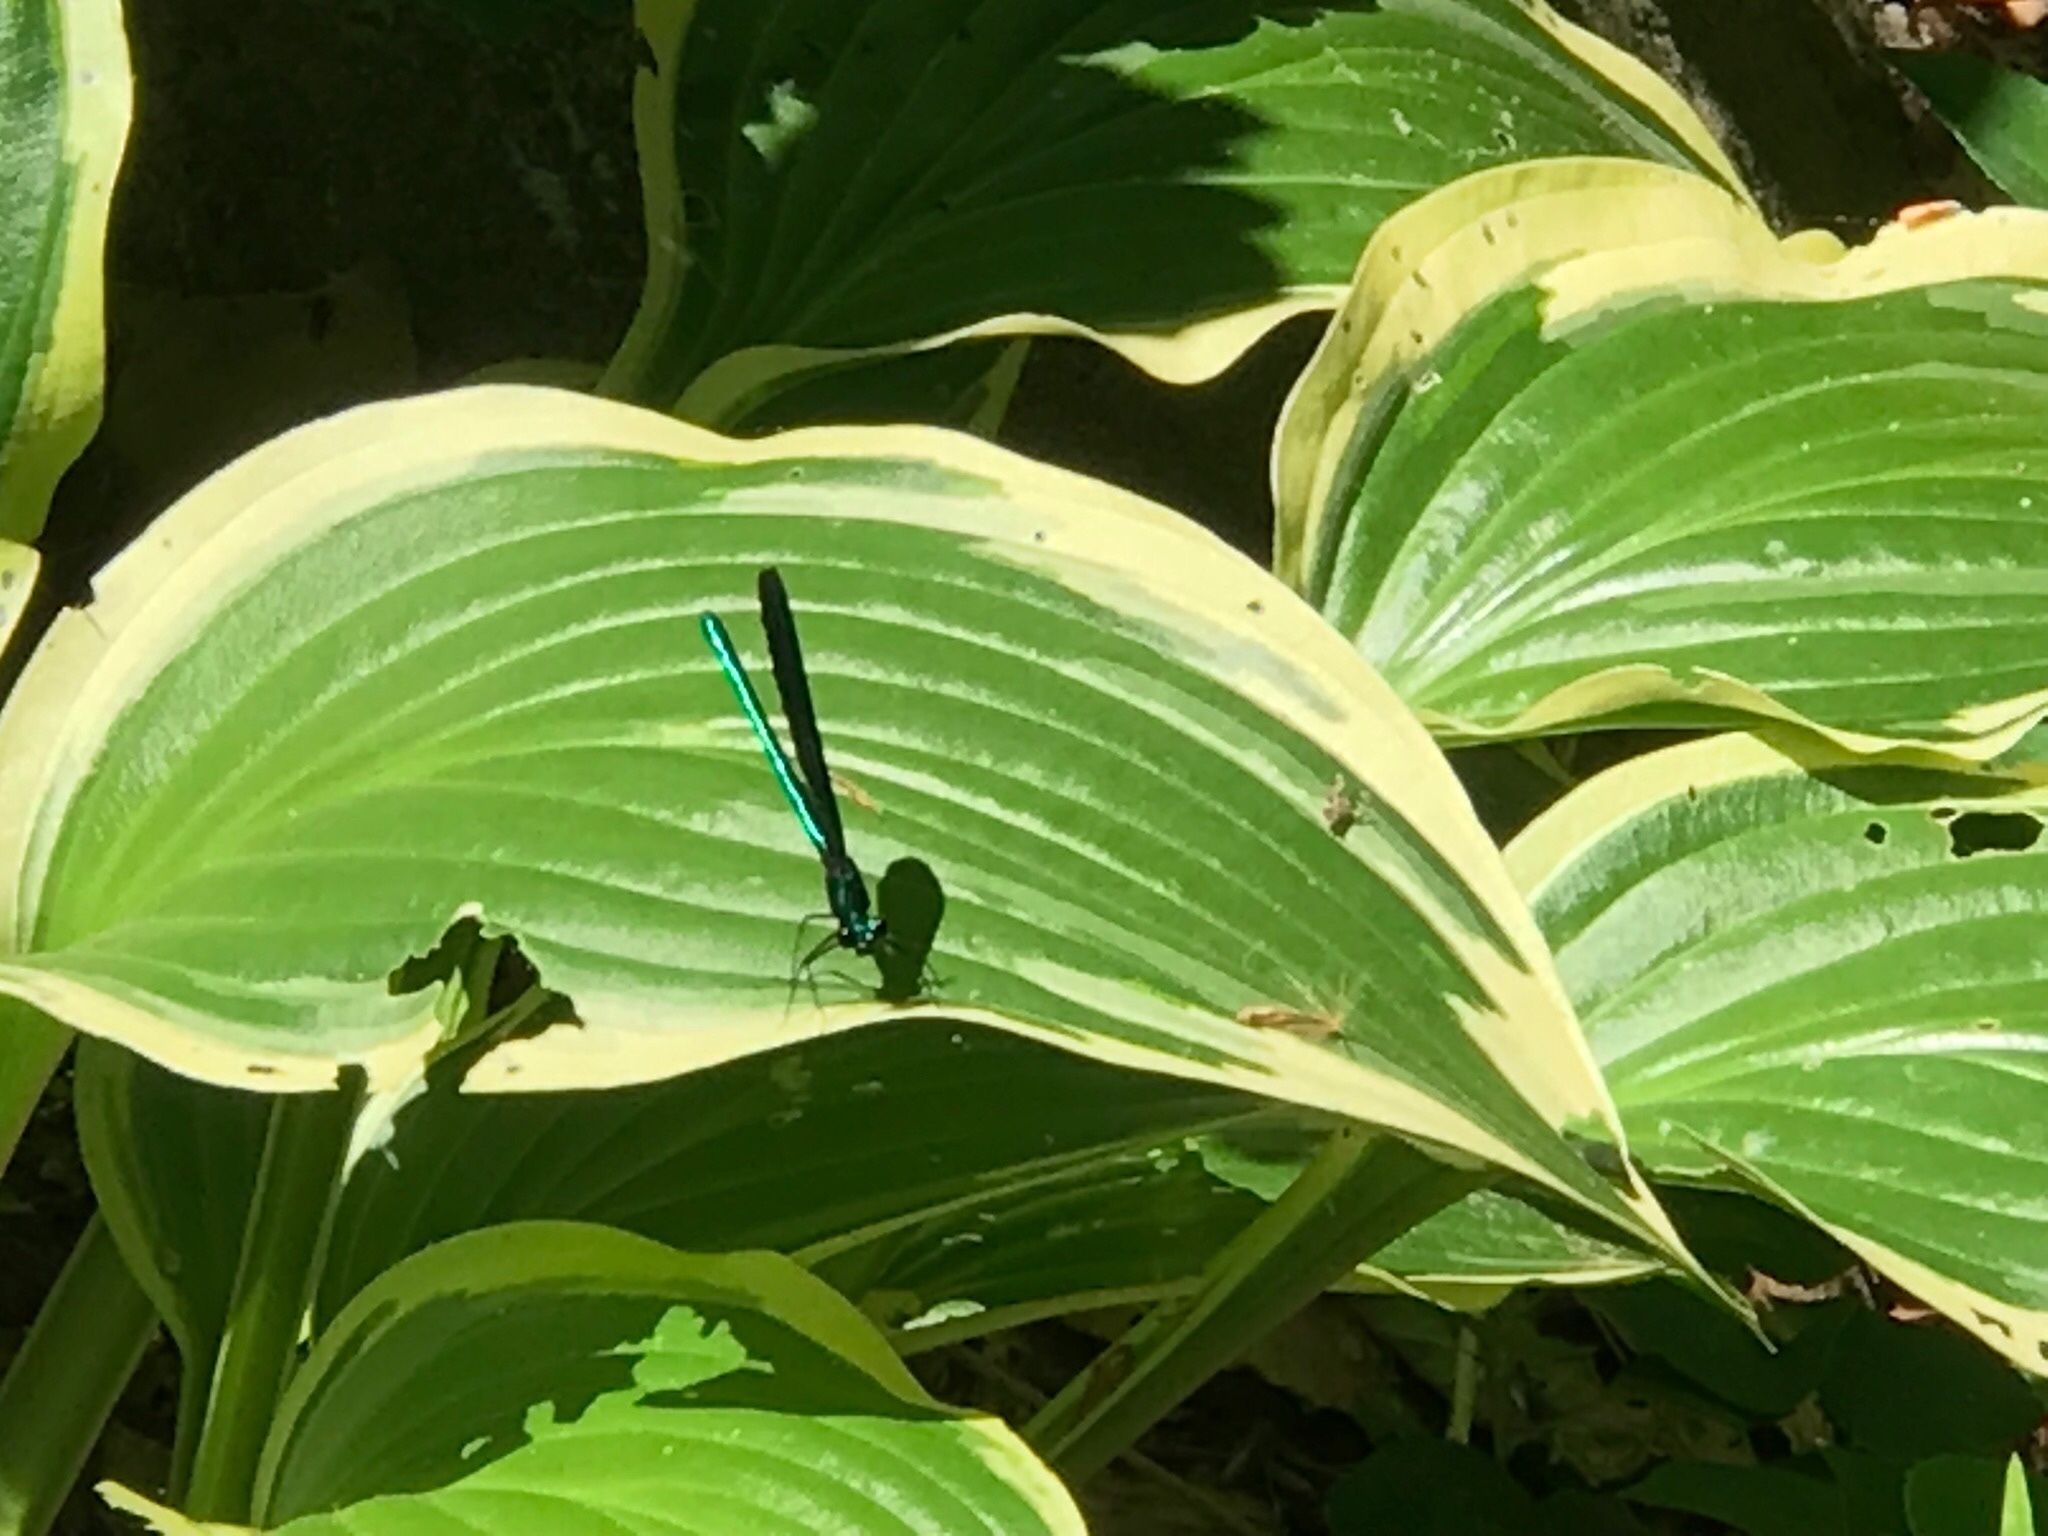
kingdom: Animalia
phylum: Arthropoda
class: Insecta
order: Odonata
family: Calopterygidae
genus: Calopteryx
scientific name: Calopteryx maculata
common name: Ebony jewelwing
